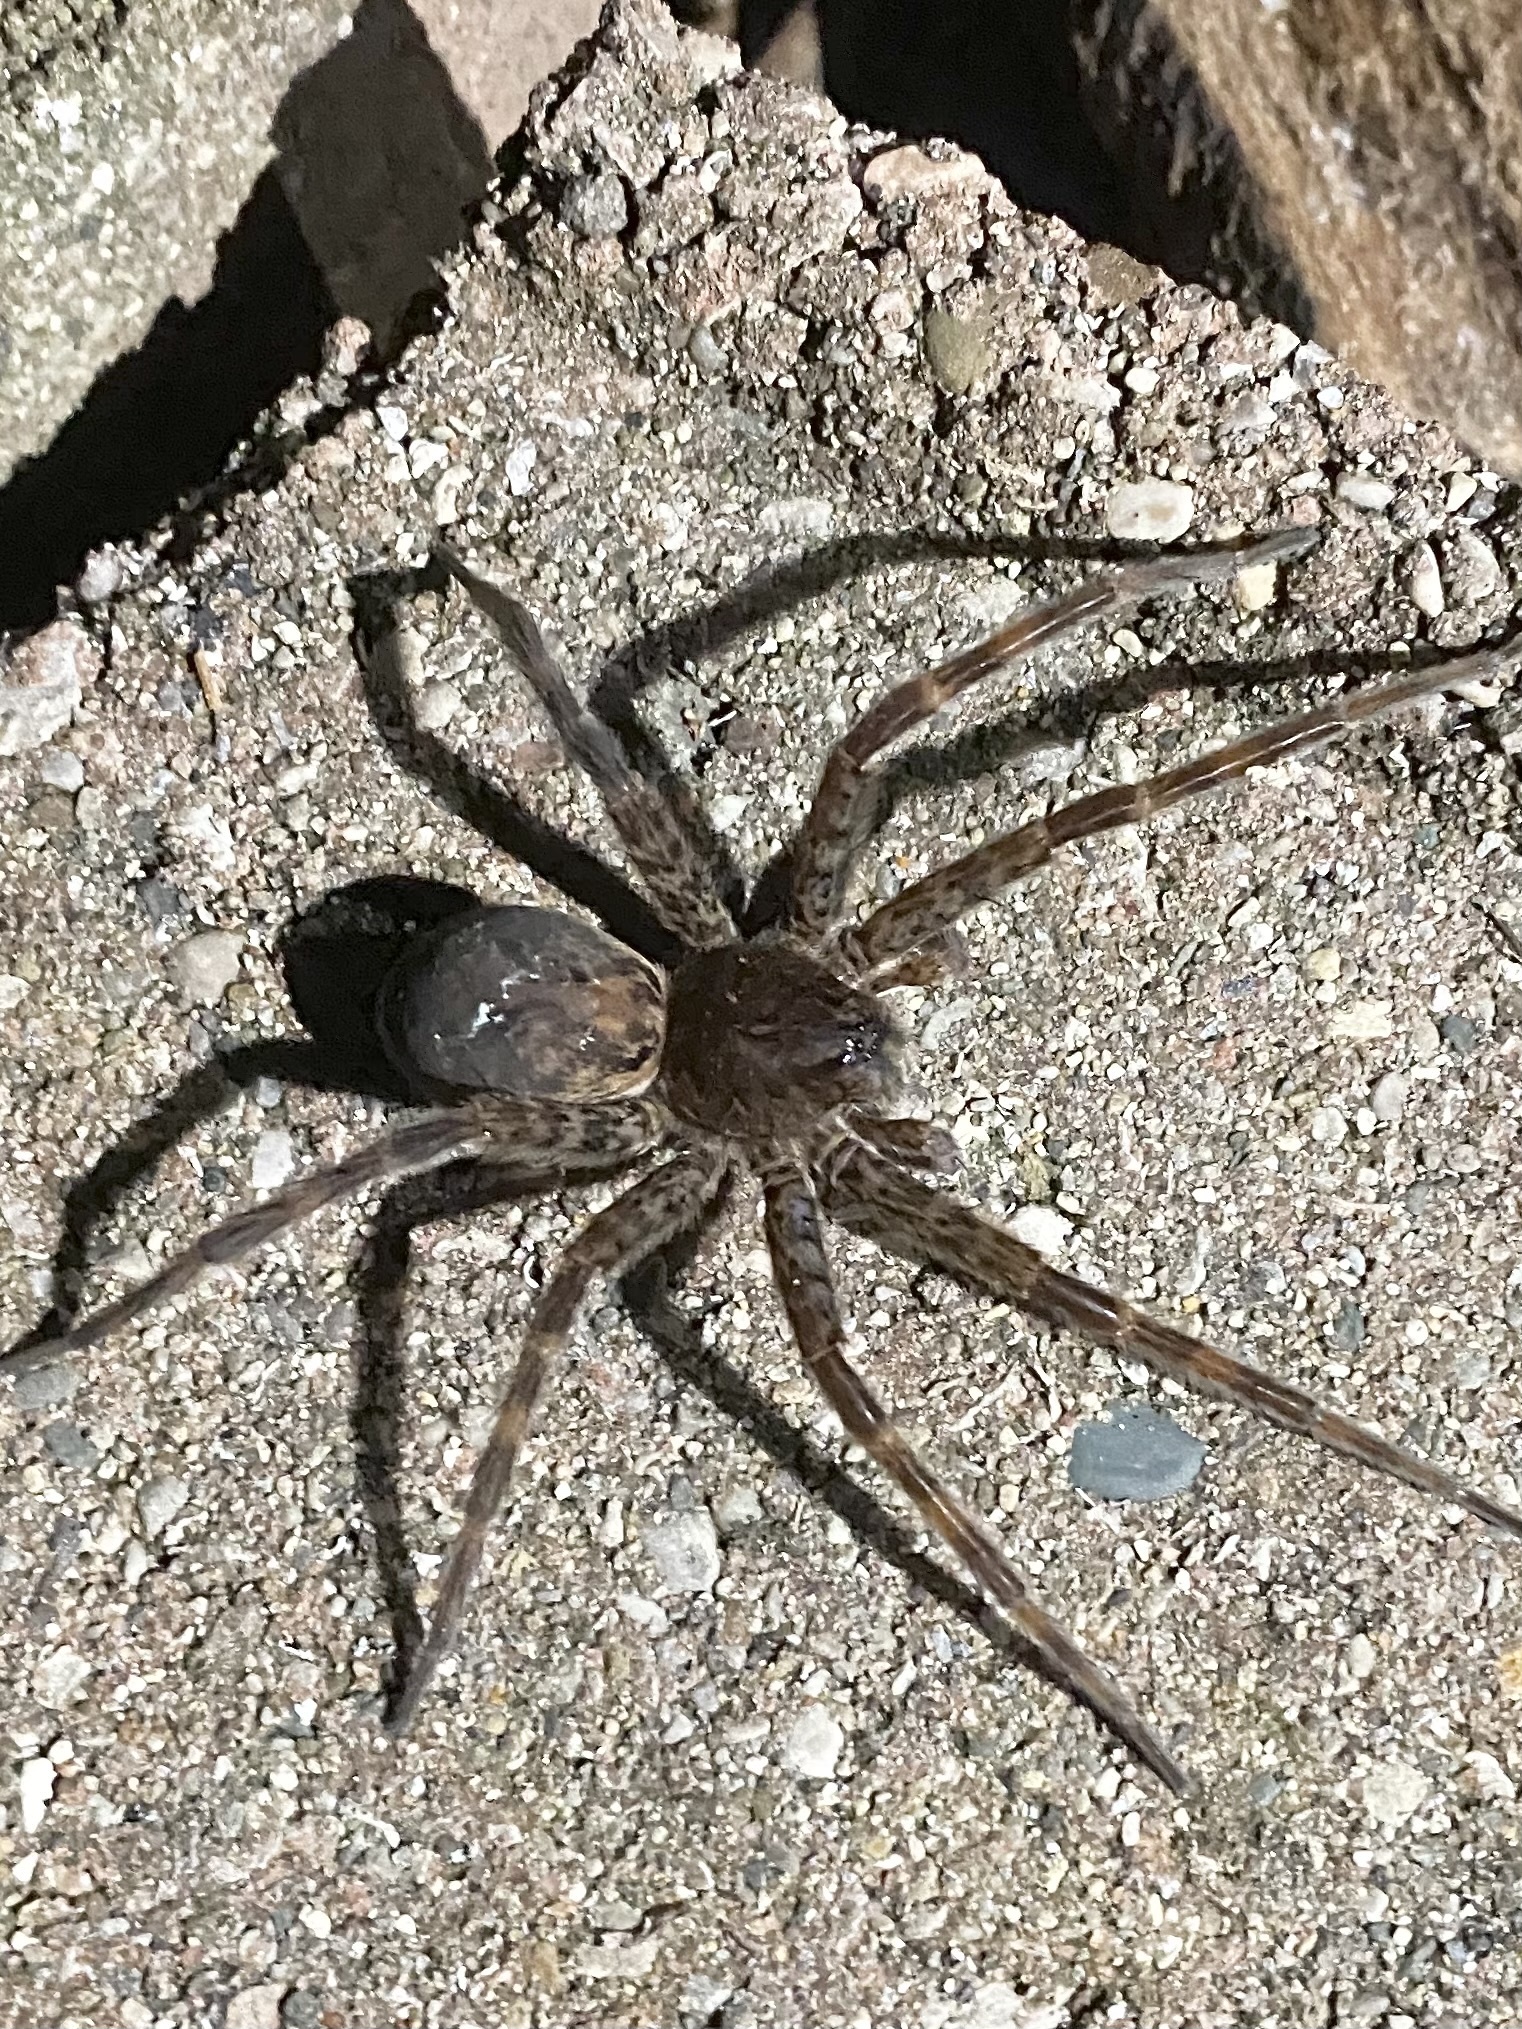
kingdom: Animalia
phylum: Arthropoda
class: Arachnida
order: Araneae
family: Pisauridae
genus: Dolomedes
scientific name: Dolomedes tenebrosus
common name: Dark fishing spider
